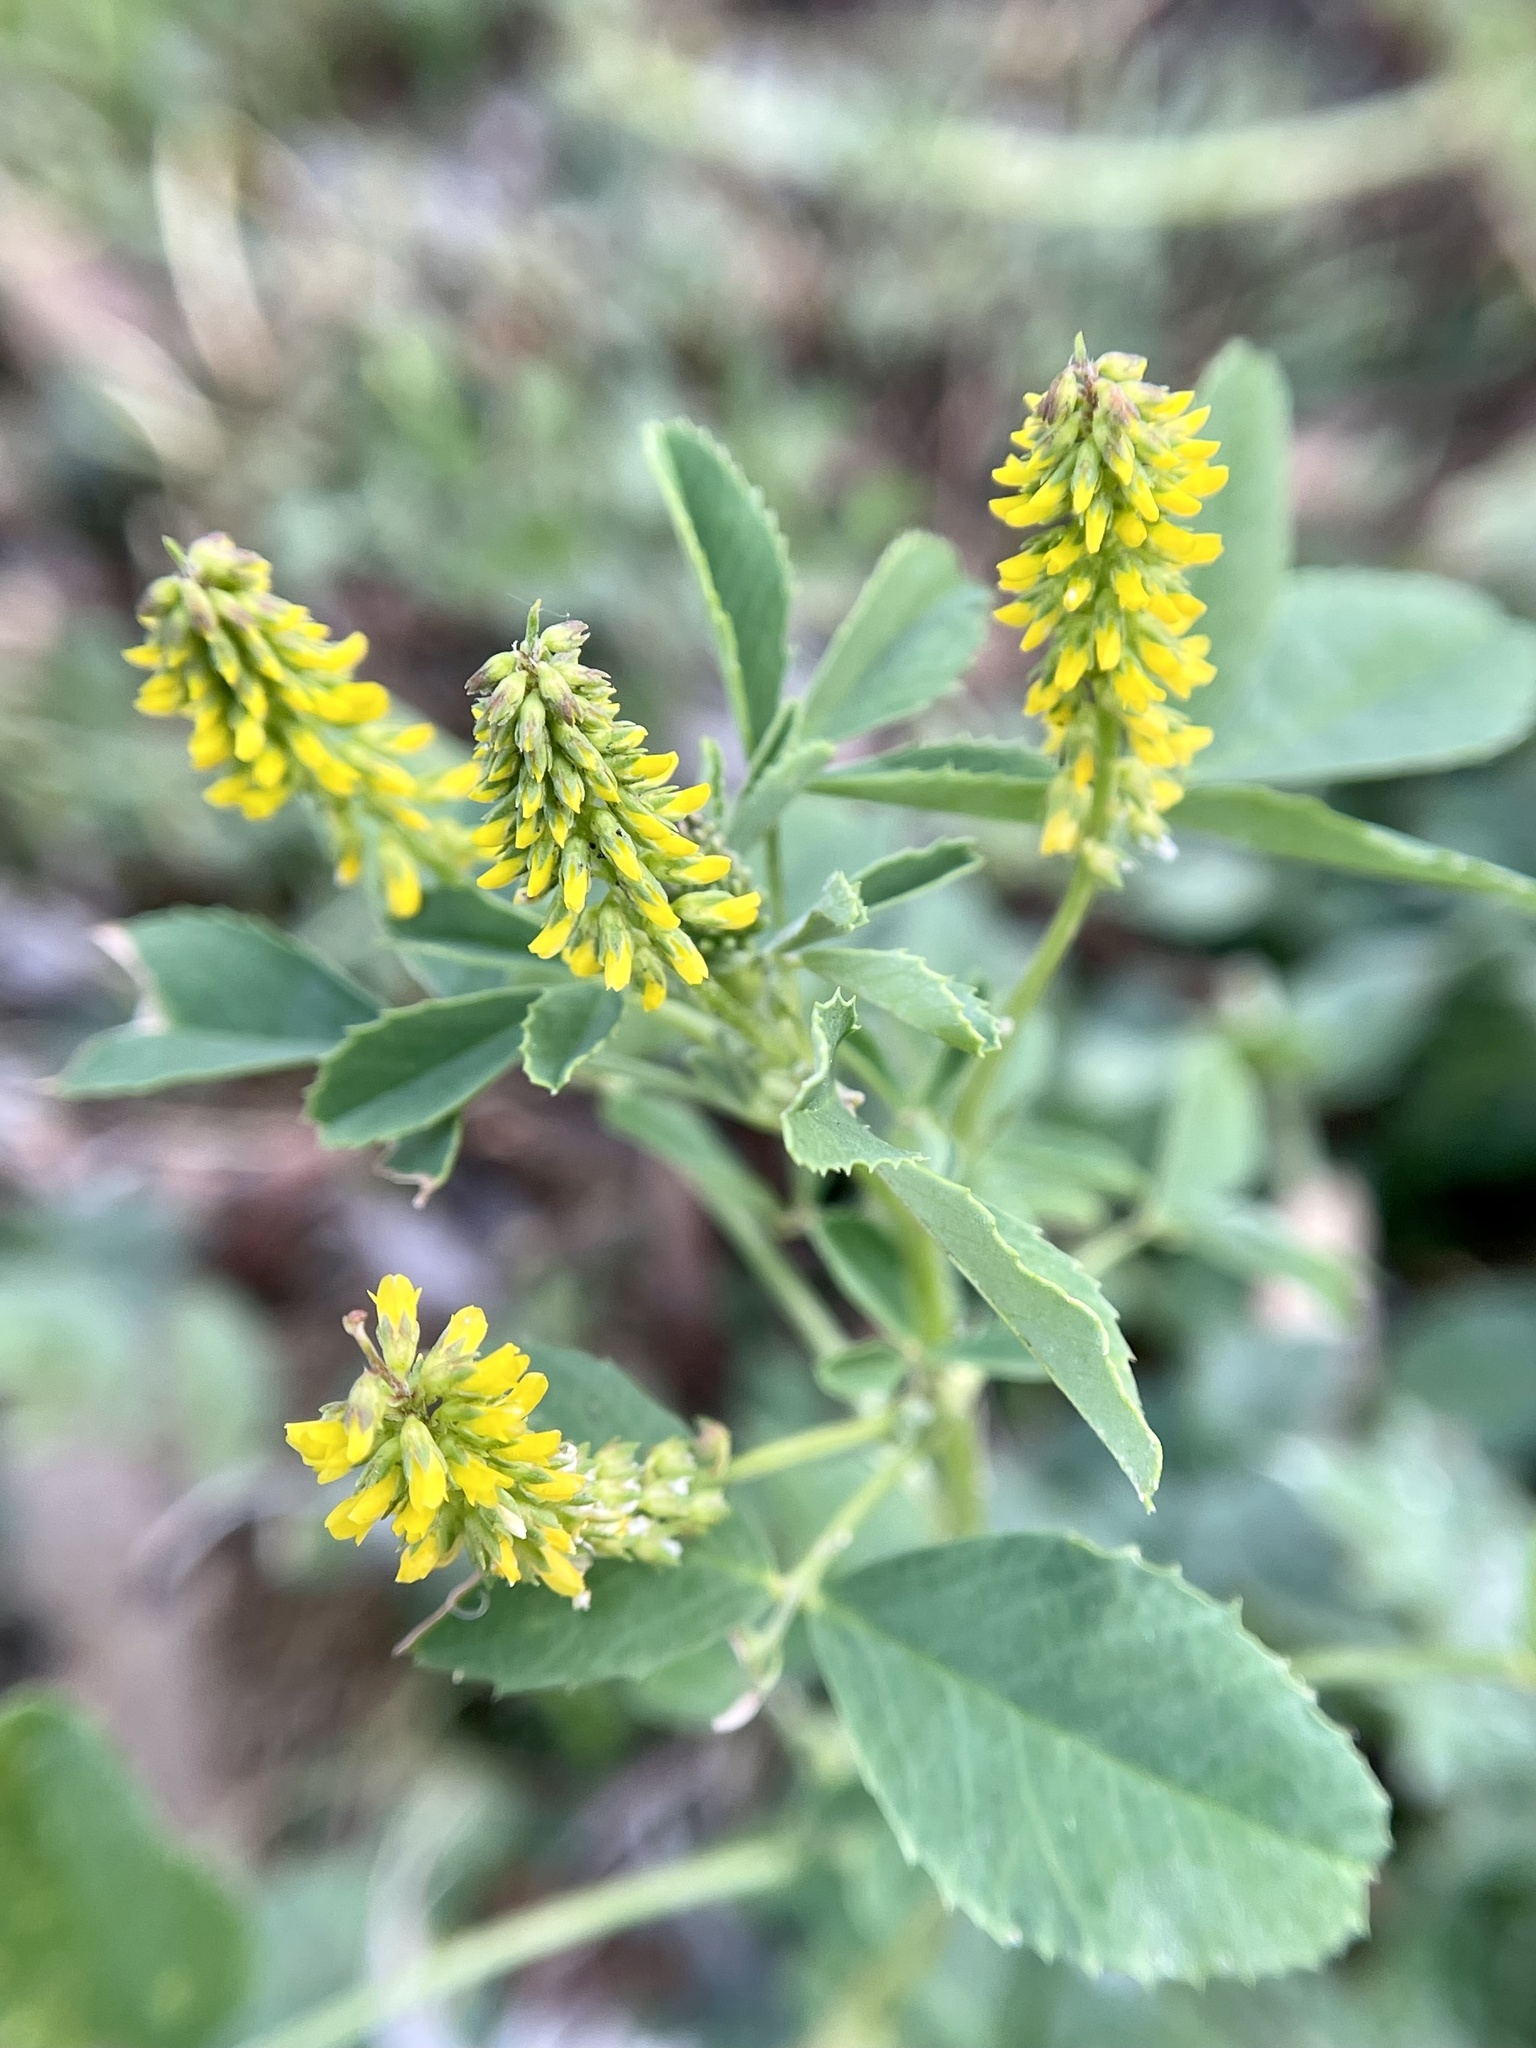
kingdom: Plantae
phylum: Tracheophyta
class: Magnoliopsida
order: Fabales
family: Fabaceae
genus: Melilotus
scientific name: Melilotus indicus
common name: Small melilot
